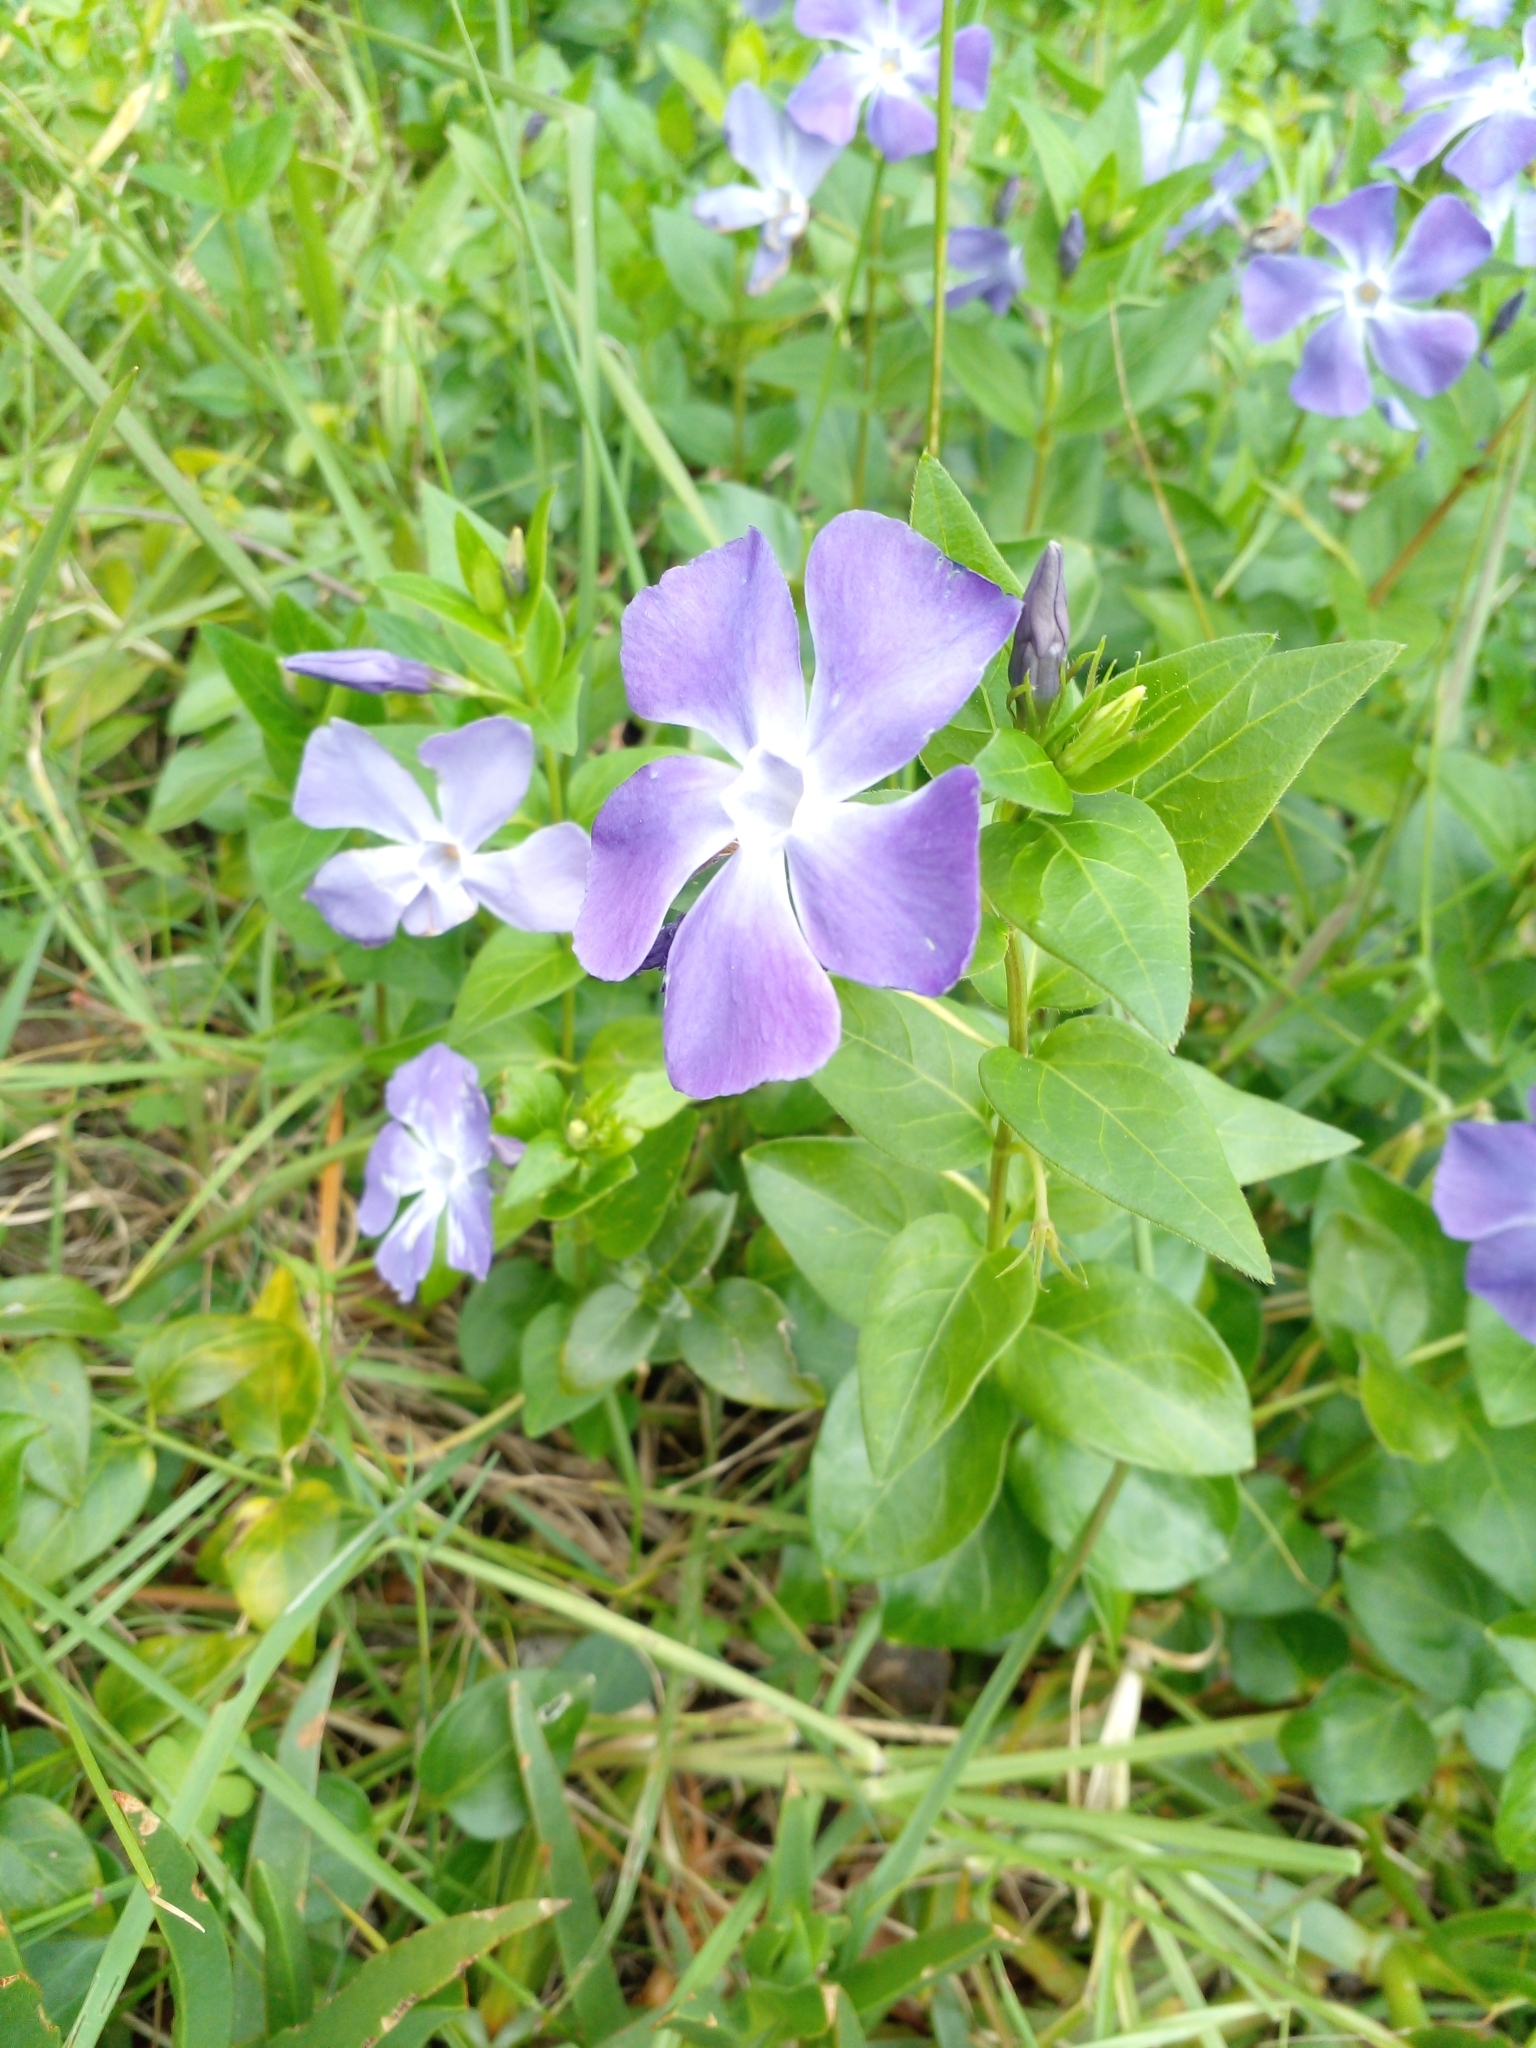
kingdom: Plantae
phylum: Tracheophyta
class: Magnoliopsida
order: Gentianales
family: Apocynaceae
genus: Vinca
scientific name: Vinca major
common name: Greater periwinkle
